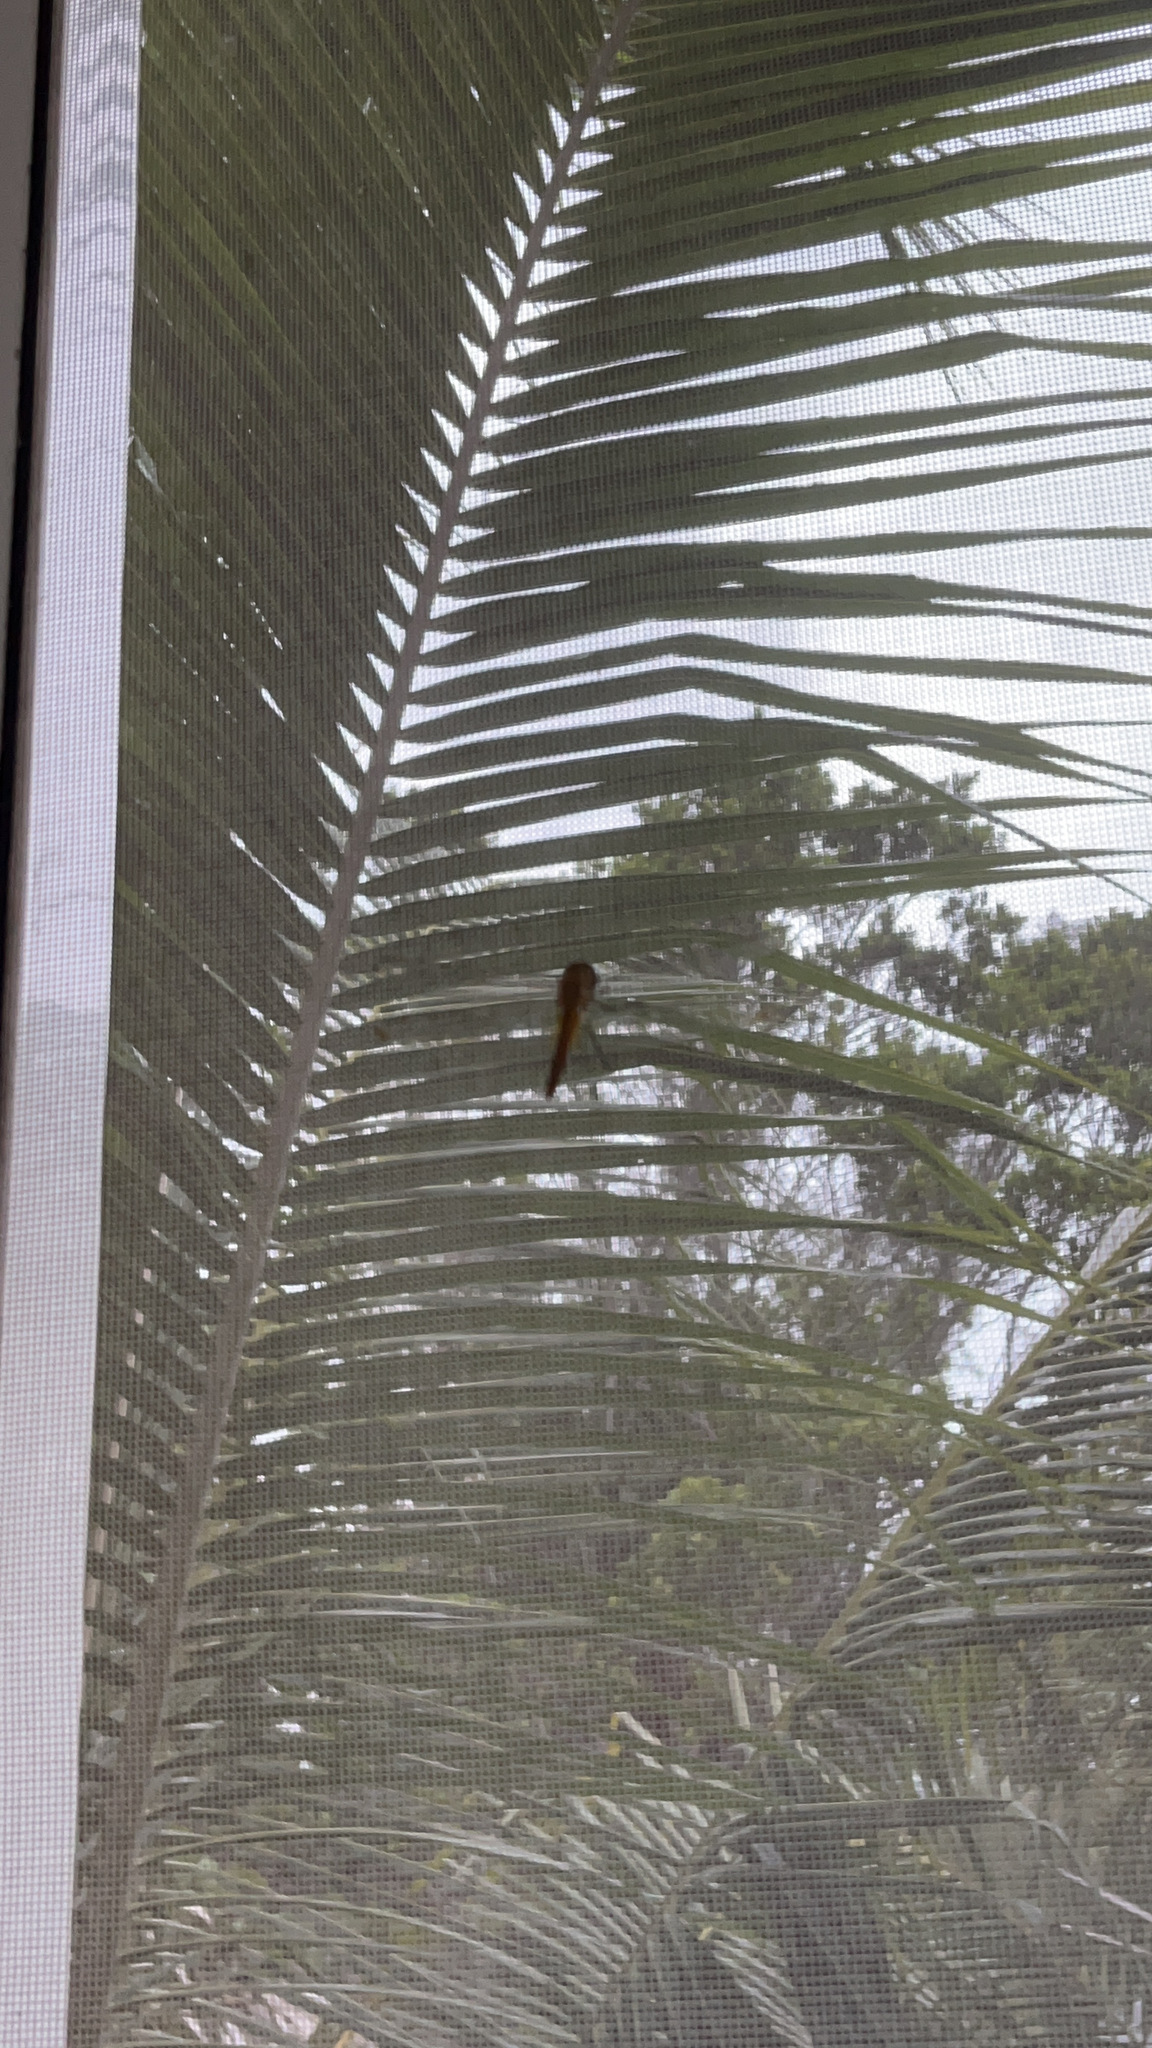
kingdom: Animalia
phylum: Arthropoda
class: Insecta
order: Odonata
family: Libellulidae
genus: Pantala
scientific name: Pantala flavescens
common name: Wandering glider
